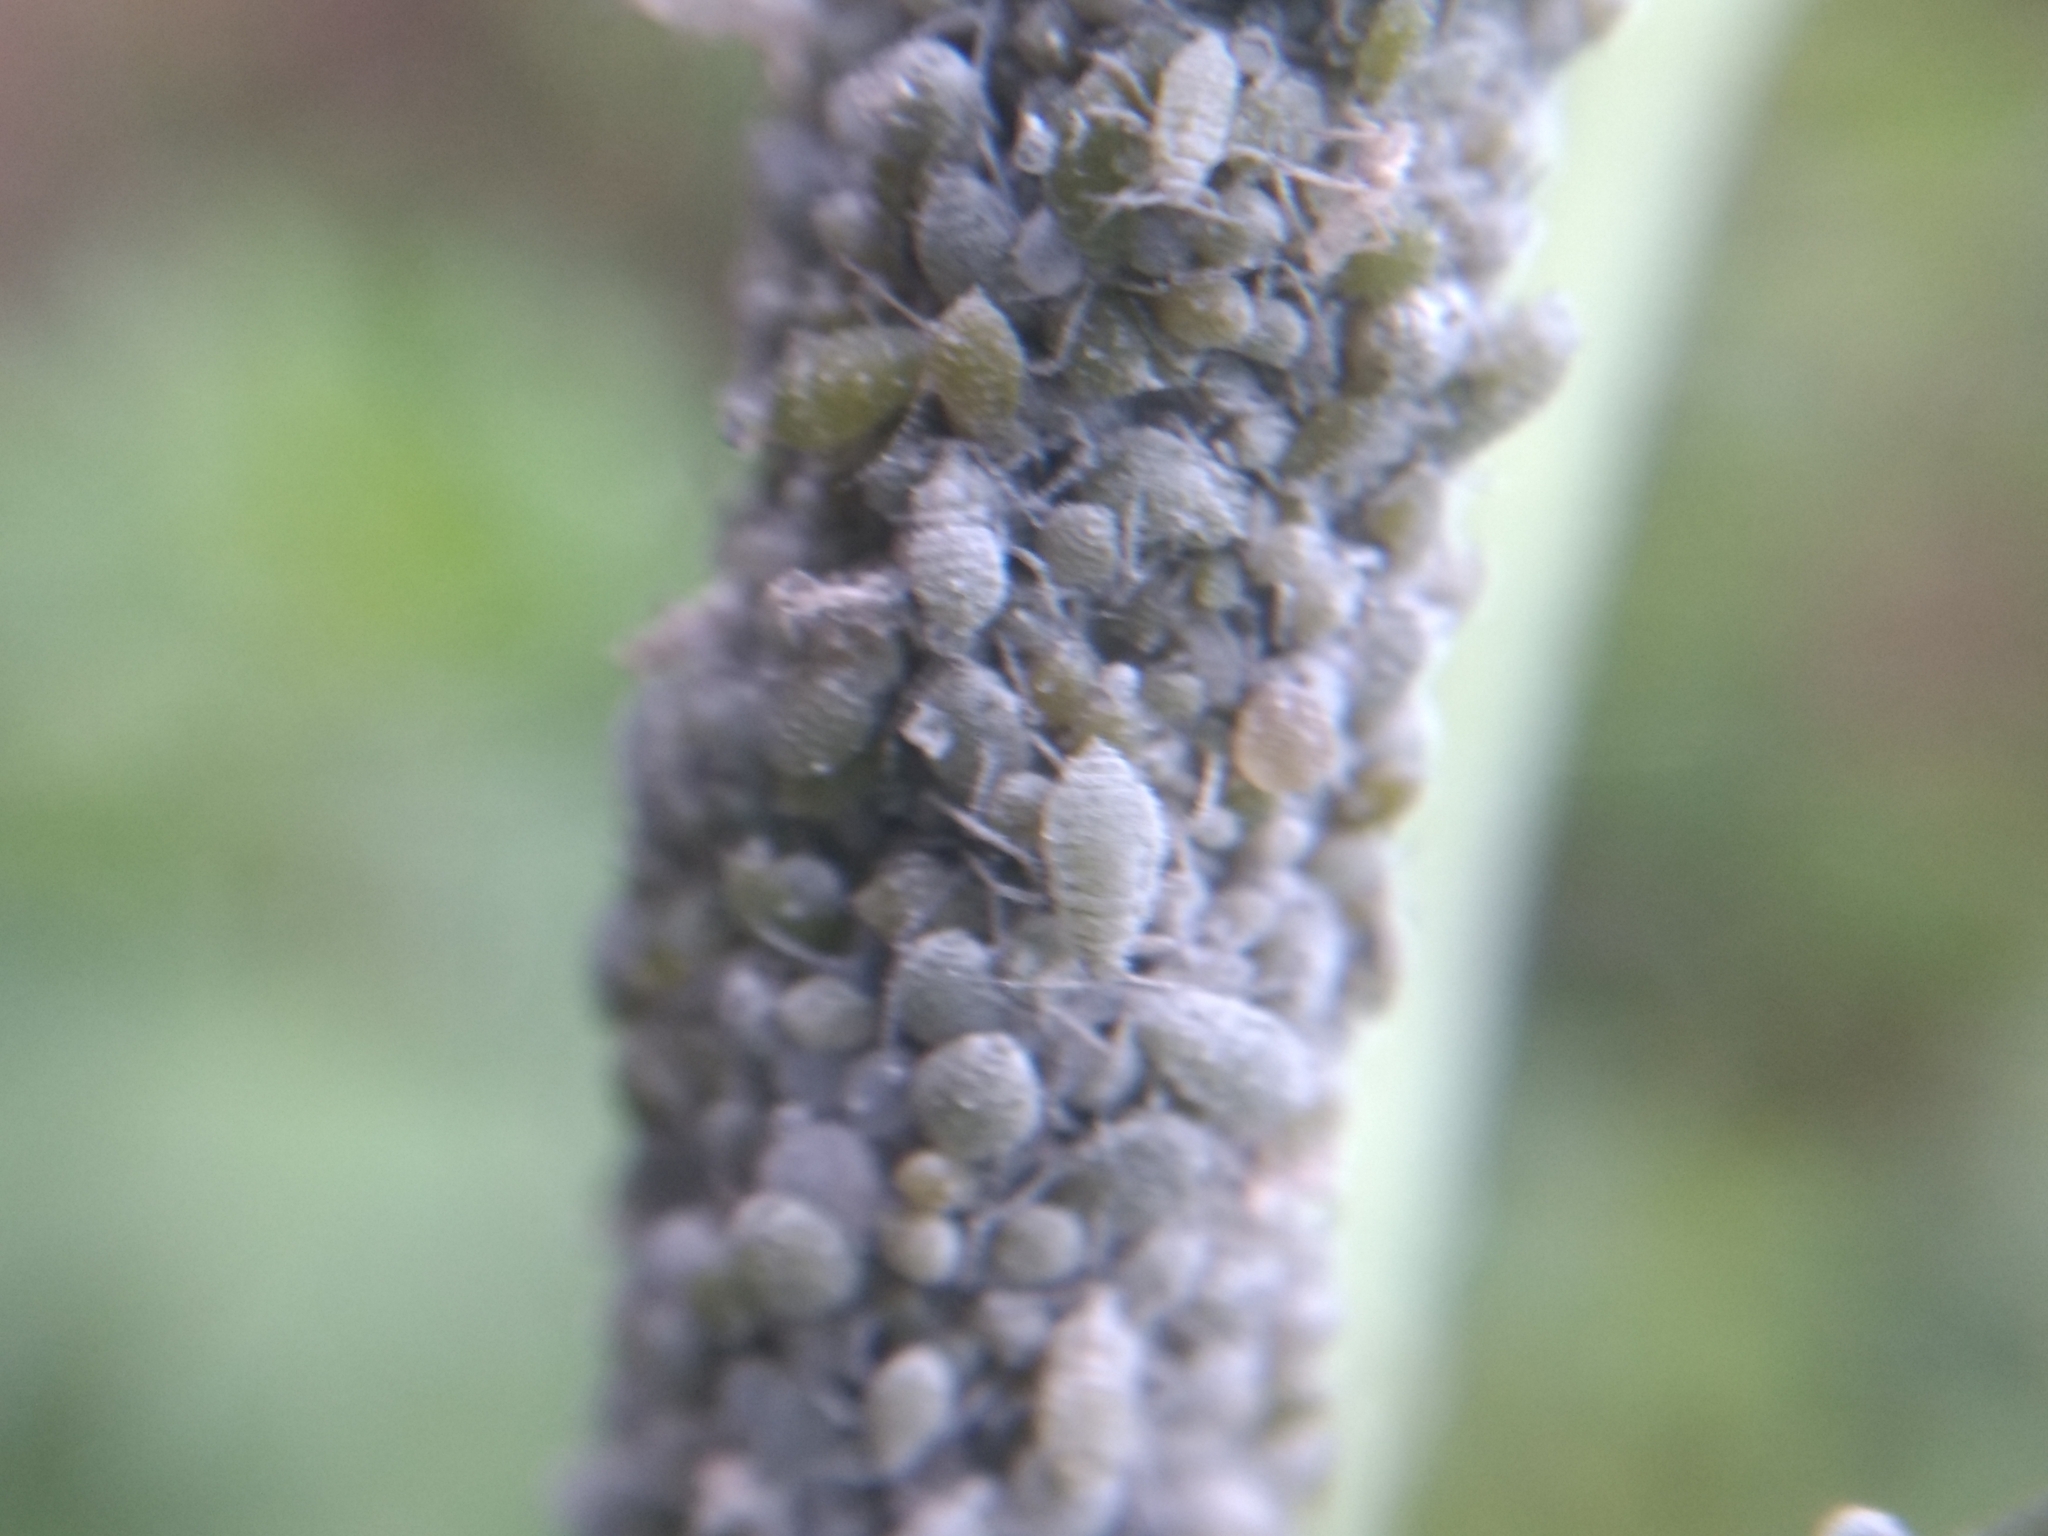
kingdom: Animalia
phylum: Arthropoda
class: Insecta
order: Hemiptera
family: Aphididae
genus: Brevicoryne
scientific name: Brevicoryne brassicae
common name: Cabbage aphid
